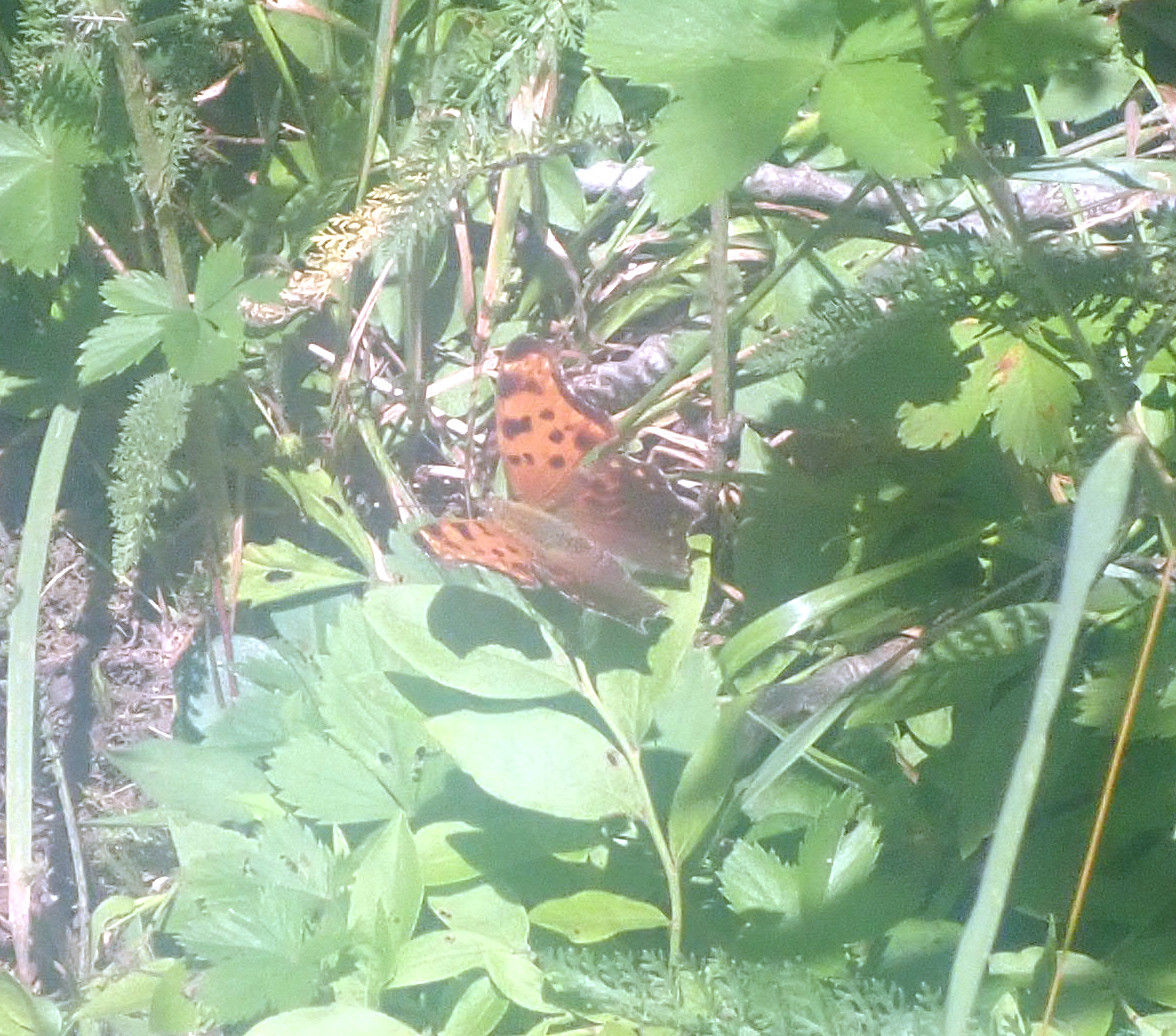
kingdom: Animalia
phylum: Arthropoda
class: Insecta
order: Lepidoptera
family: Nymphalidae
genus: Polygonia
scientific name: Polygonia comma
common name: Eastern comma
